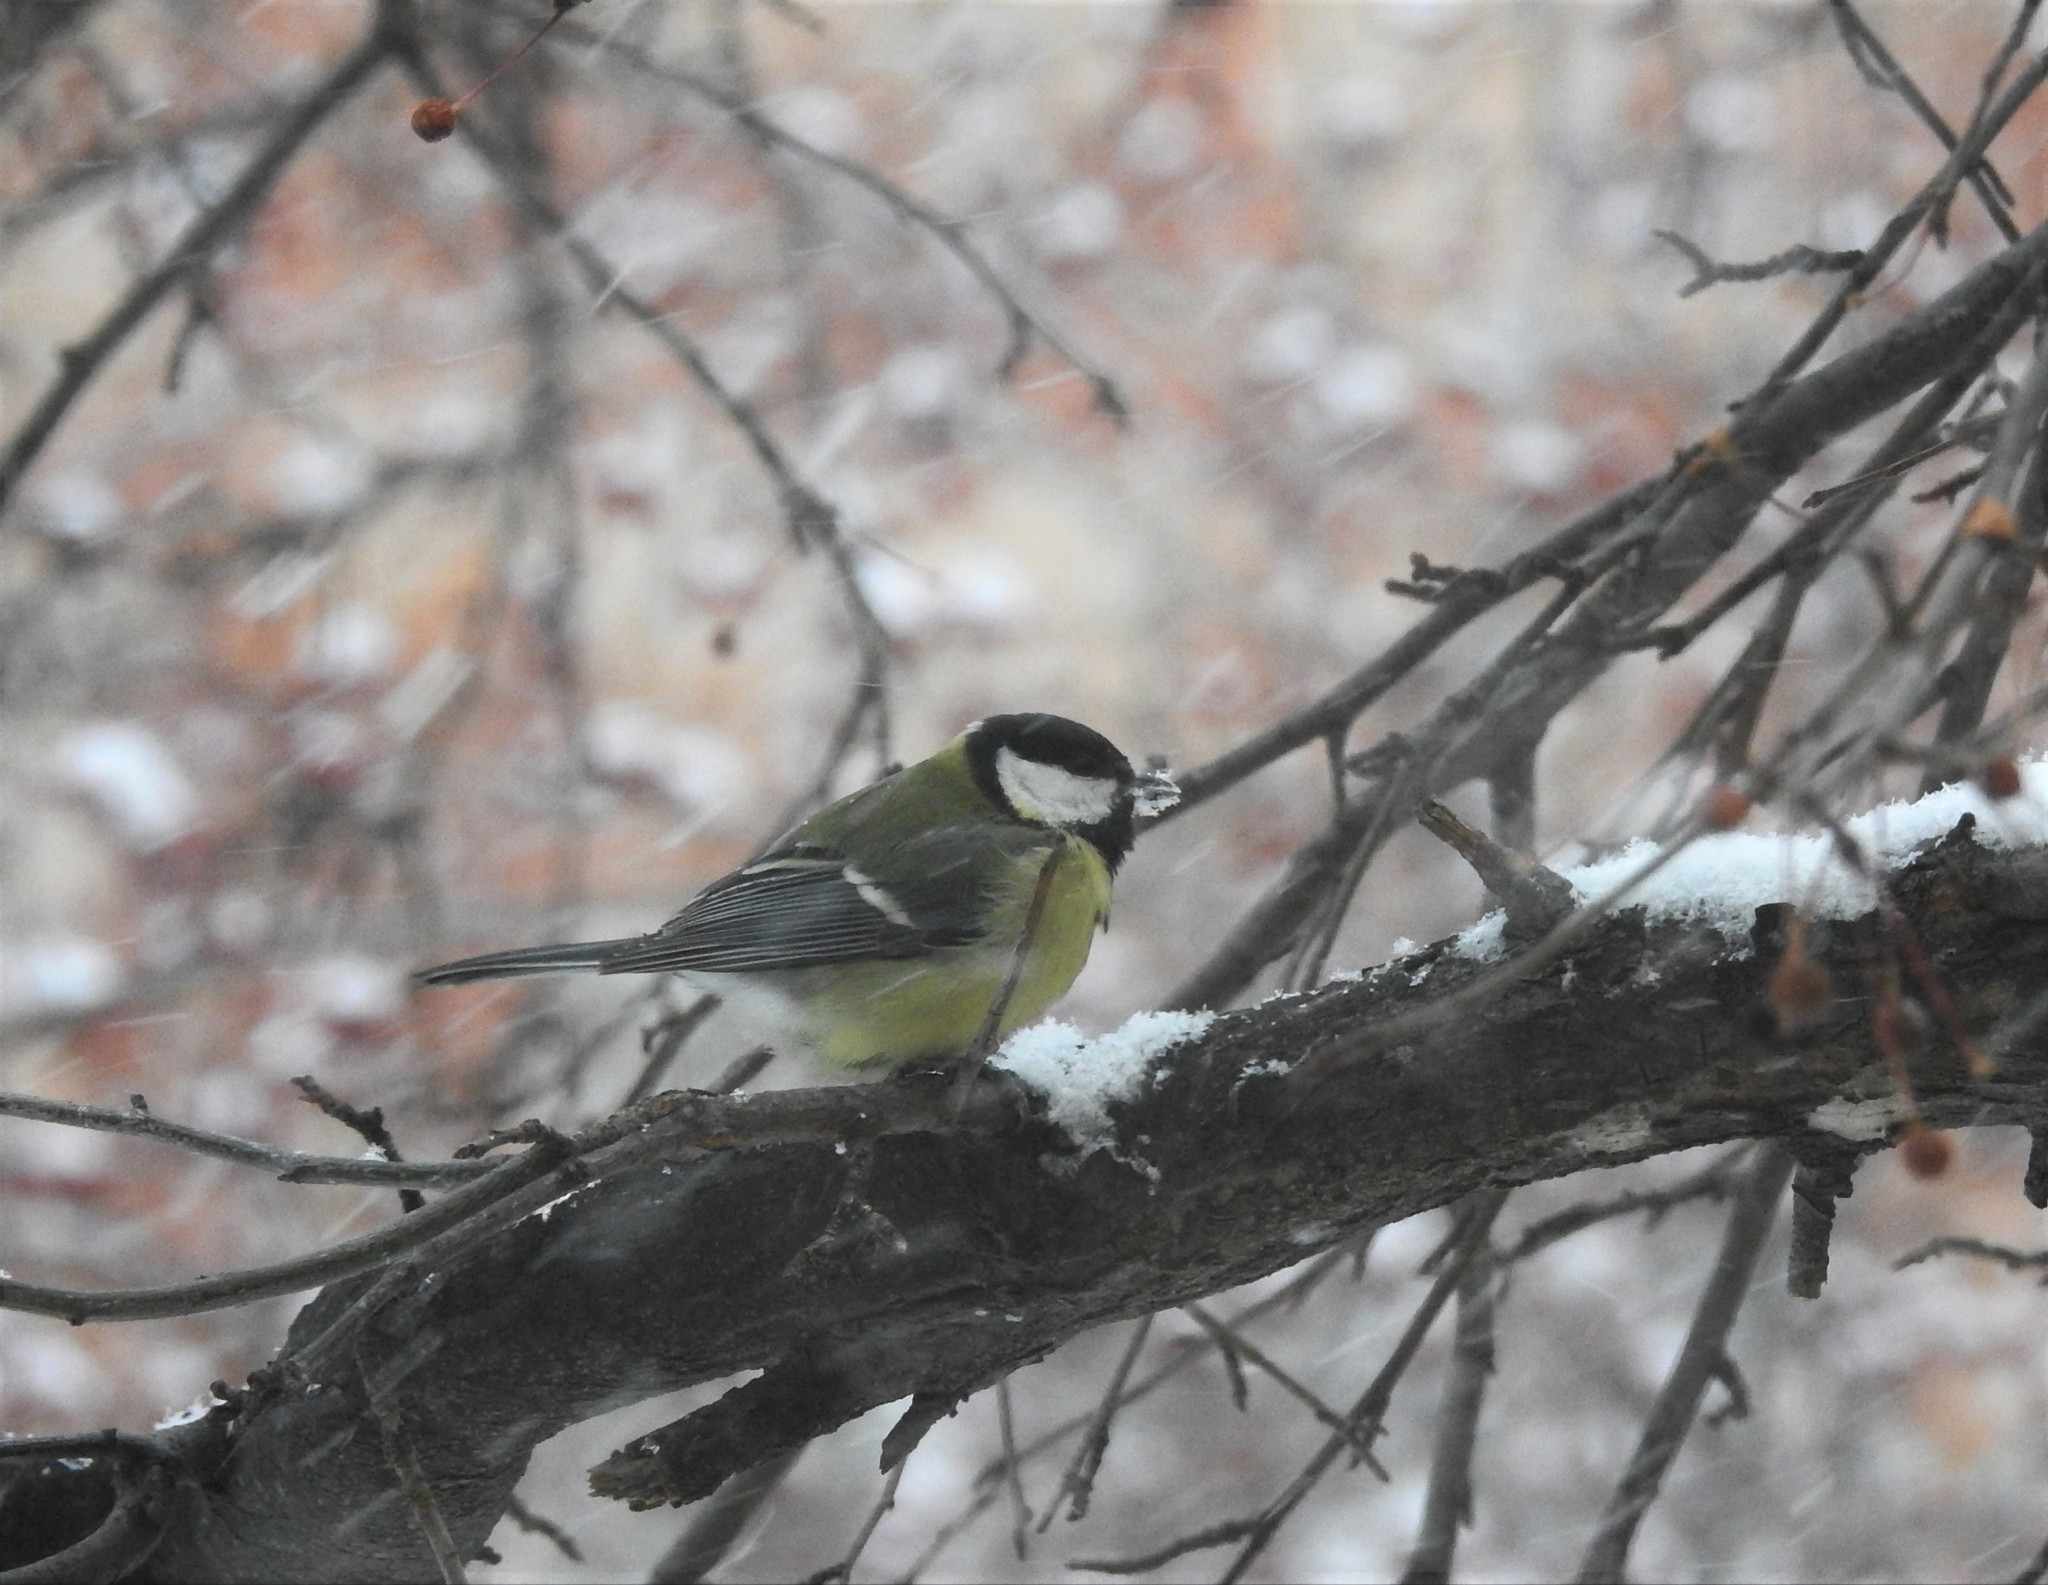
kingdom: Animalia
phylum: Chordata
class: Aves
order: Passeriformes
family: Paridae
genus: Parus
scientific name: Parus major
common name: Great tit
